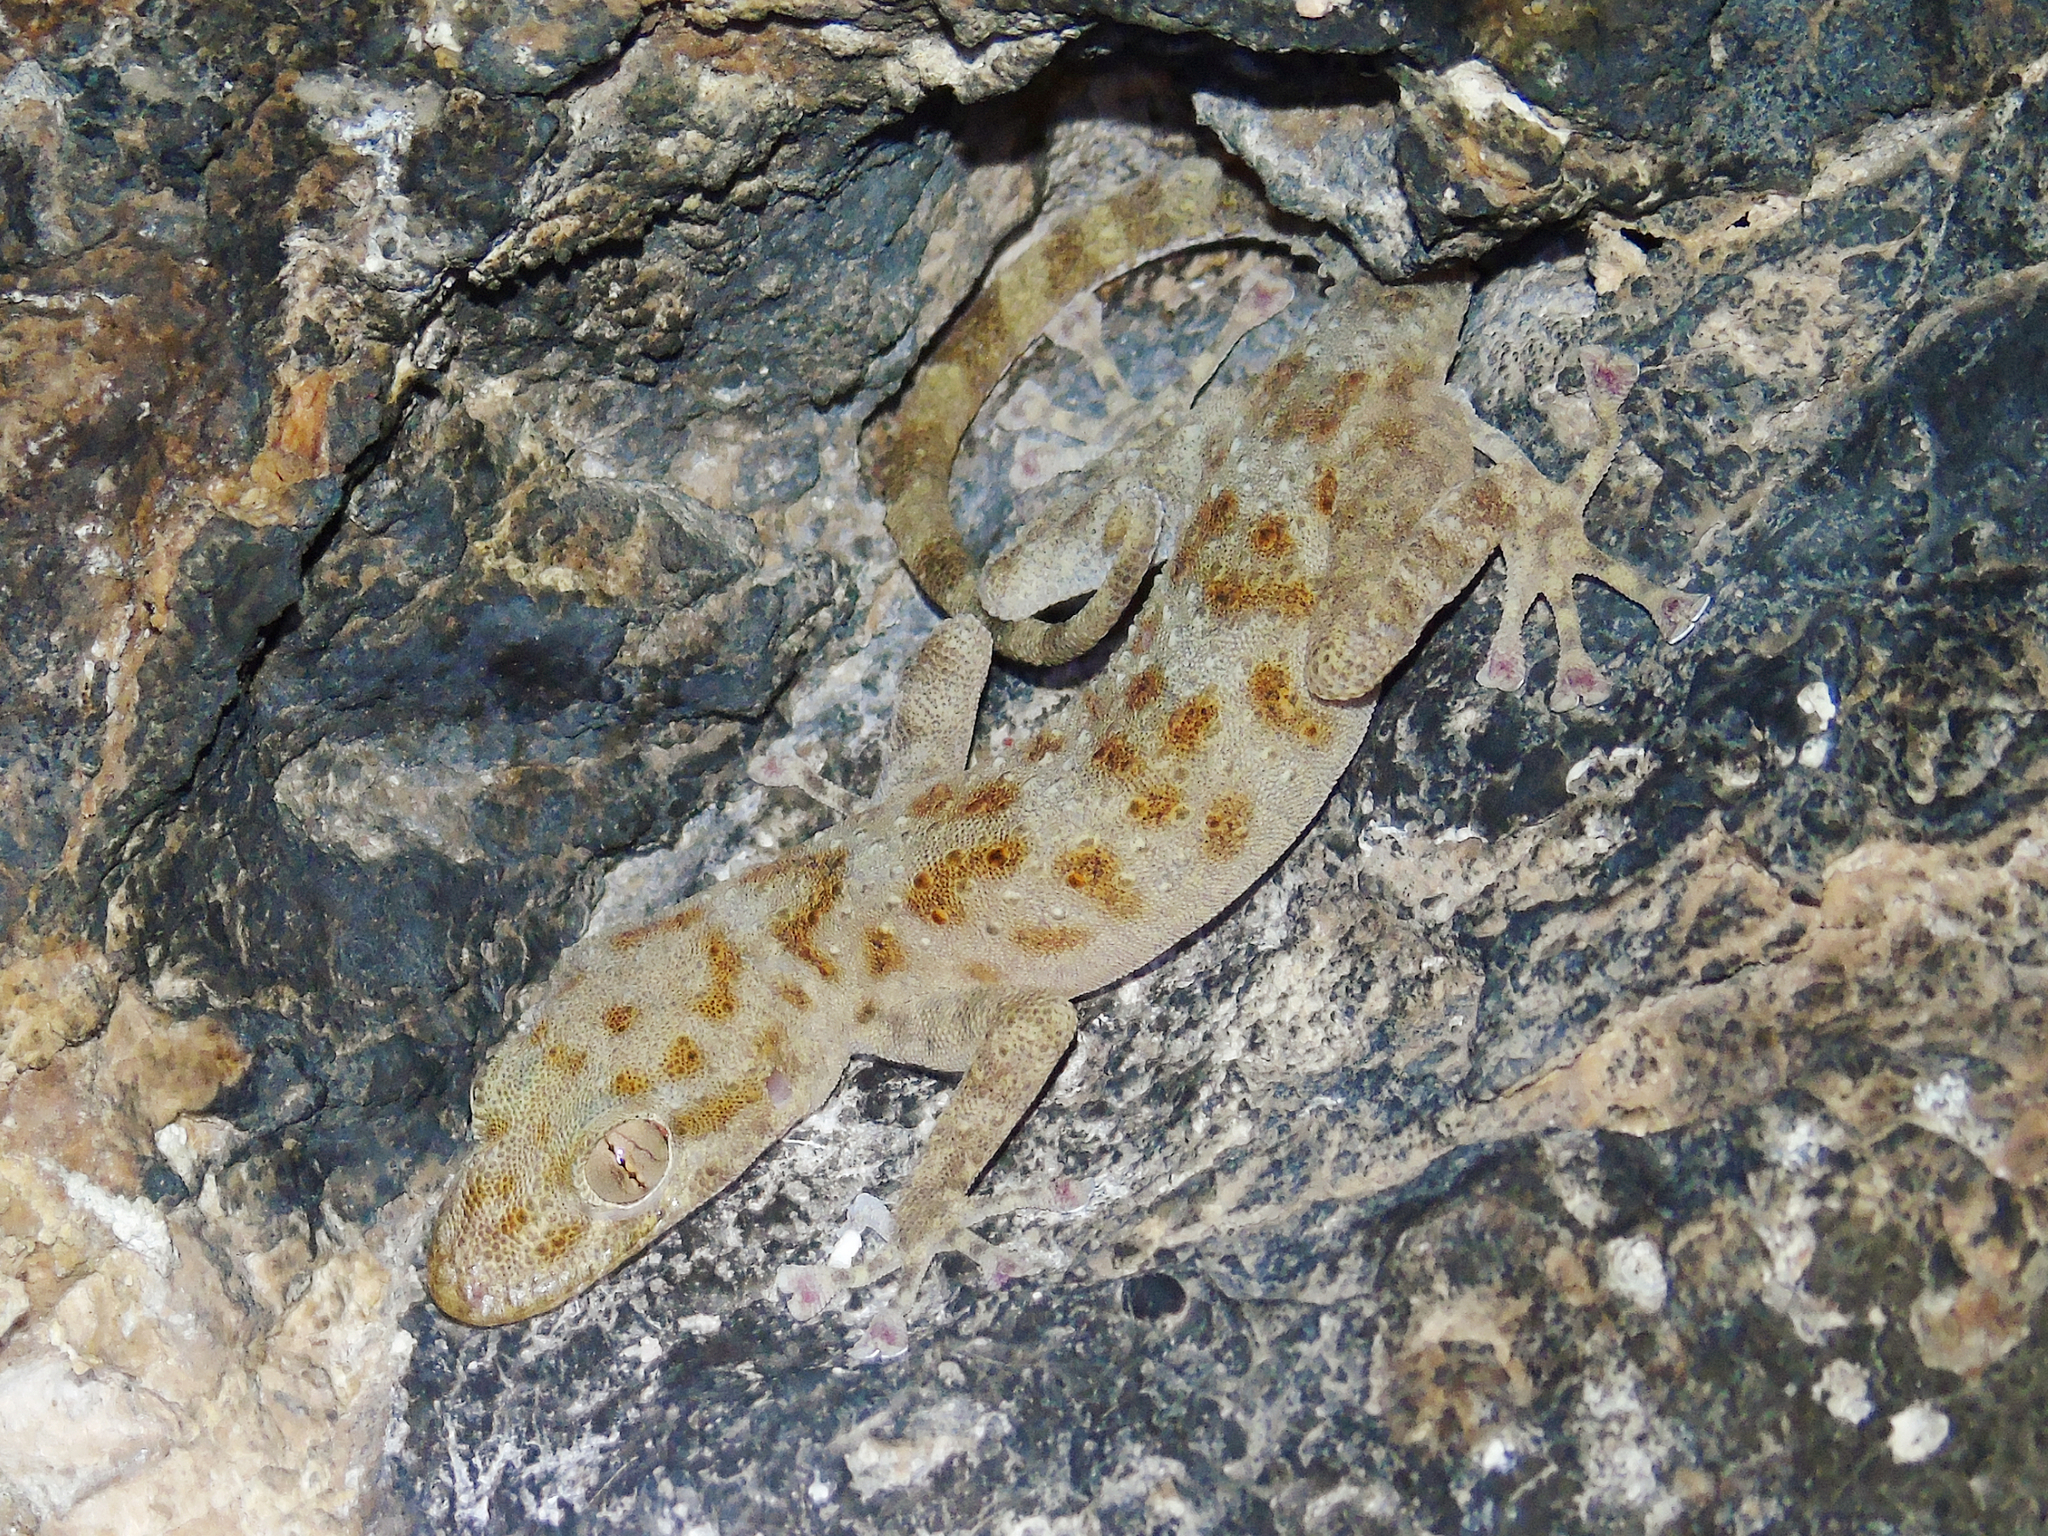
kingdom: Animalia
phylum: Chordata
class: Squamata
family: Phyllodactylidae
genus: Asaccus
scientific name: Asaccus griseonotus
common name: Gray-spotted leaf-toed gecko
